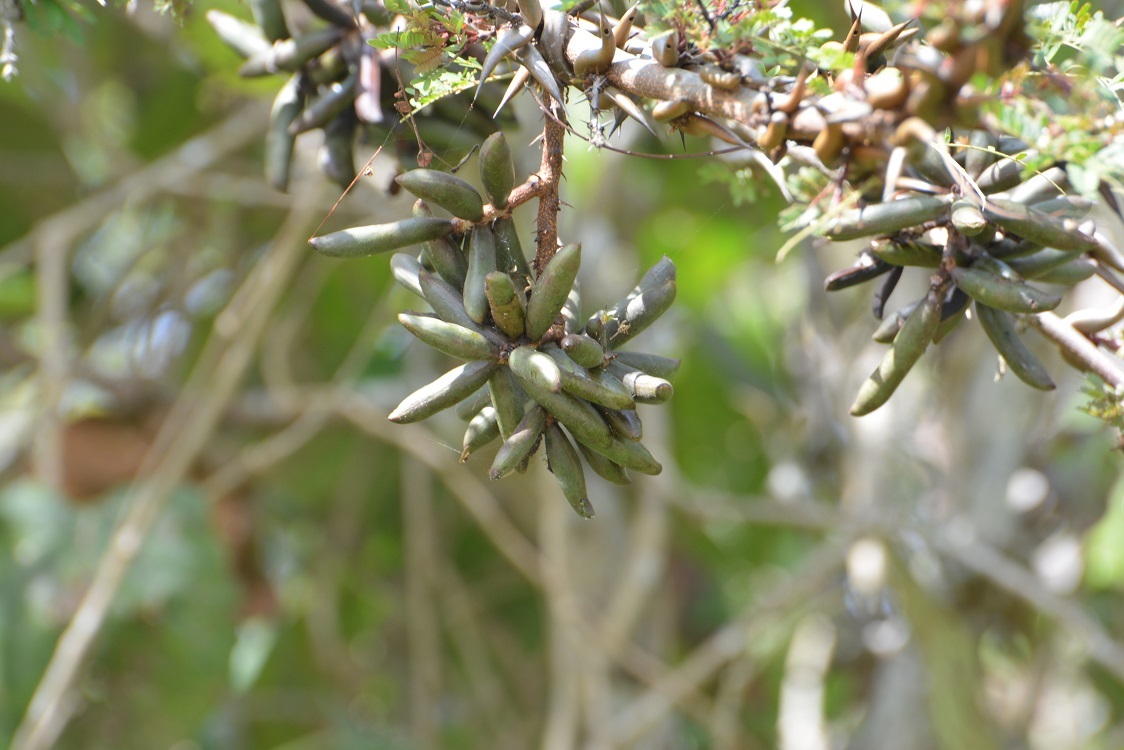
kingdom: Plantae
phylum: Tracheophyta
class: Magnoliopsida
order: Fabales
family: Fabaceae
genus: Vachellia
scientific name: Vachellia cornigera
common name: Bullhorn wattle
